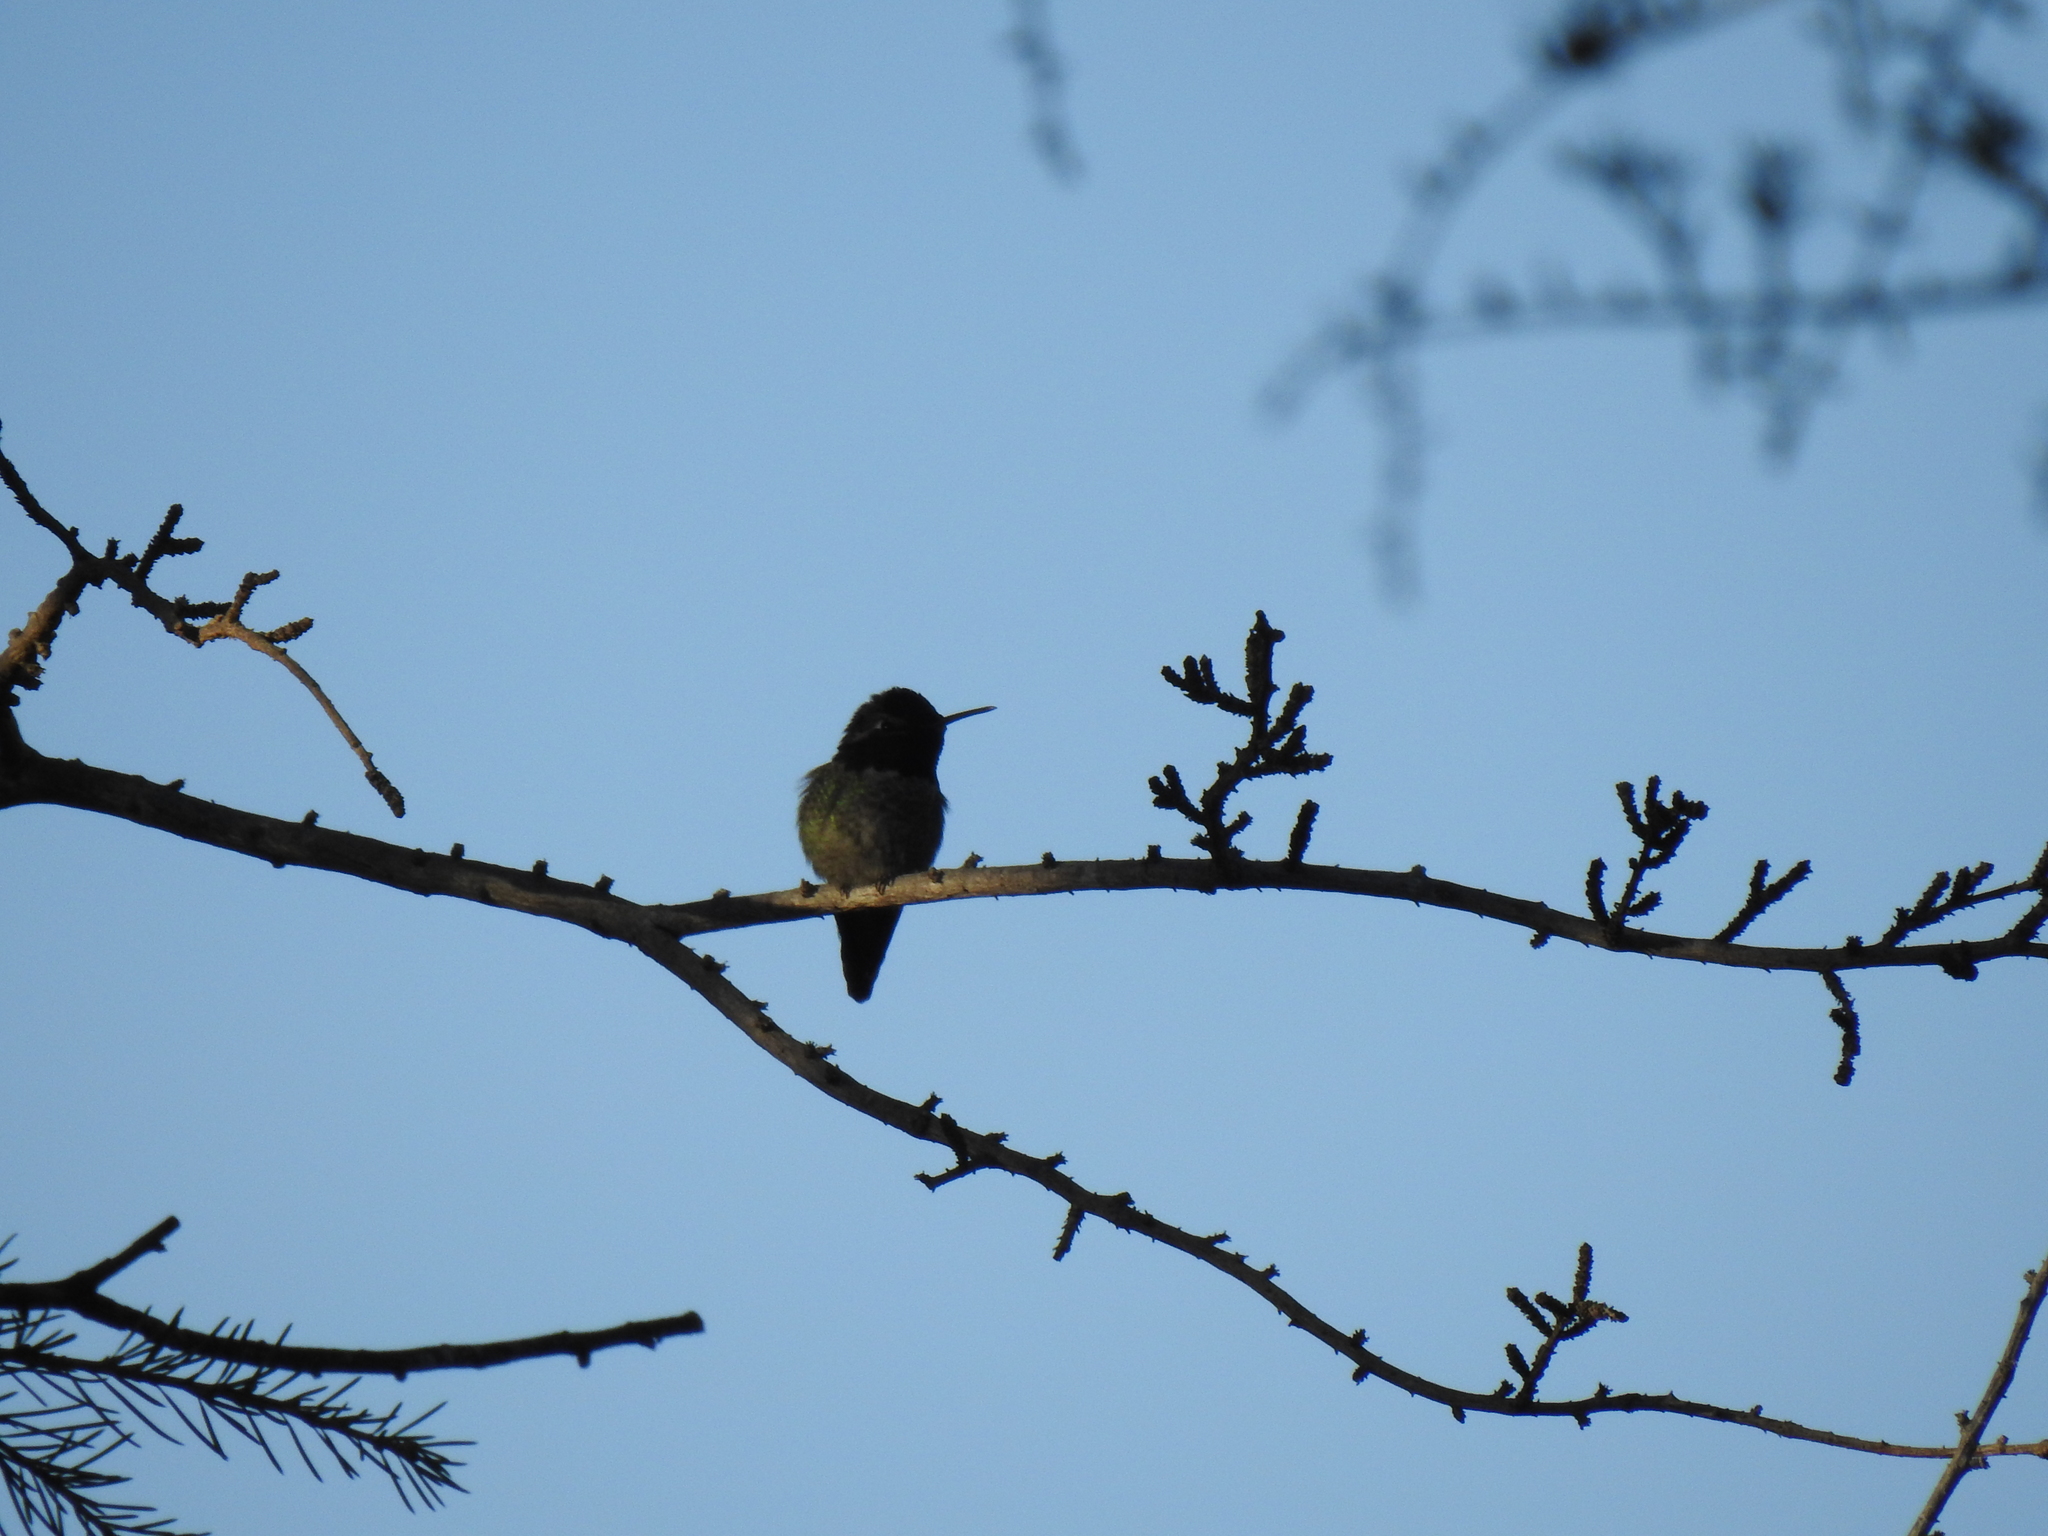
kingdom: Animalia
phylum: Chordata
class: Aves
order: Apodiformes
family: Trochilidae
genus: Calypte
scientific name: Calypte anna
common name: Anna's hummingbird
